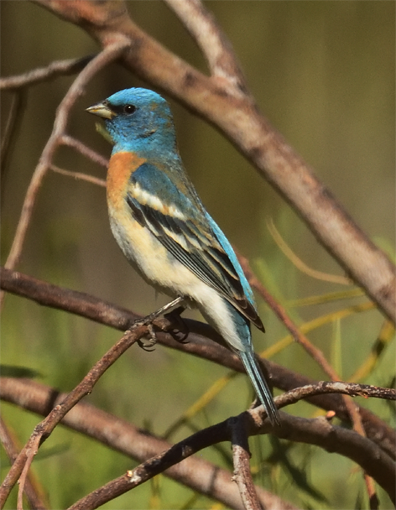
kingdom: Animalia
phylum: Chordata
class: Aves
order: Passeriformes
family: Cardinalidae
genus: Passerina
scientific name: Passerina amoena
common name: Lazuli bunting
